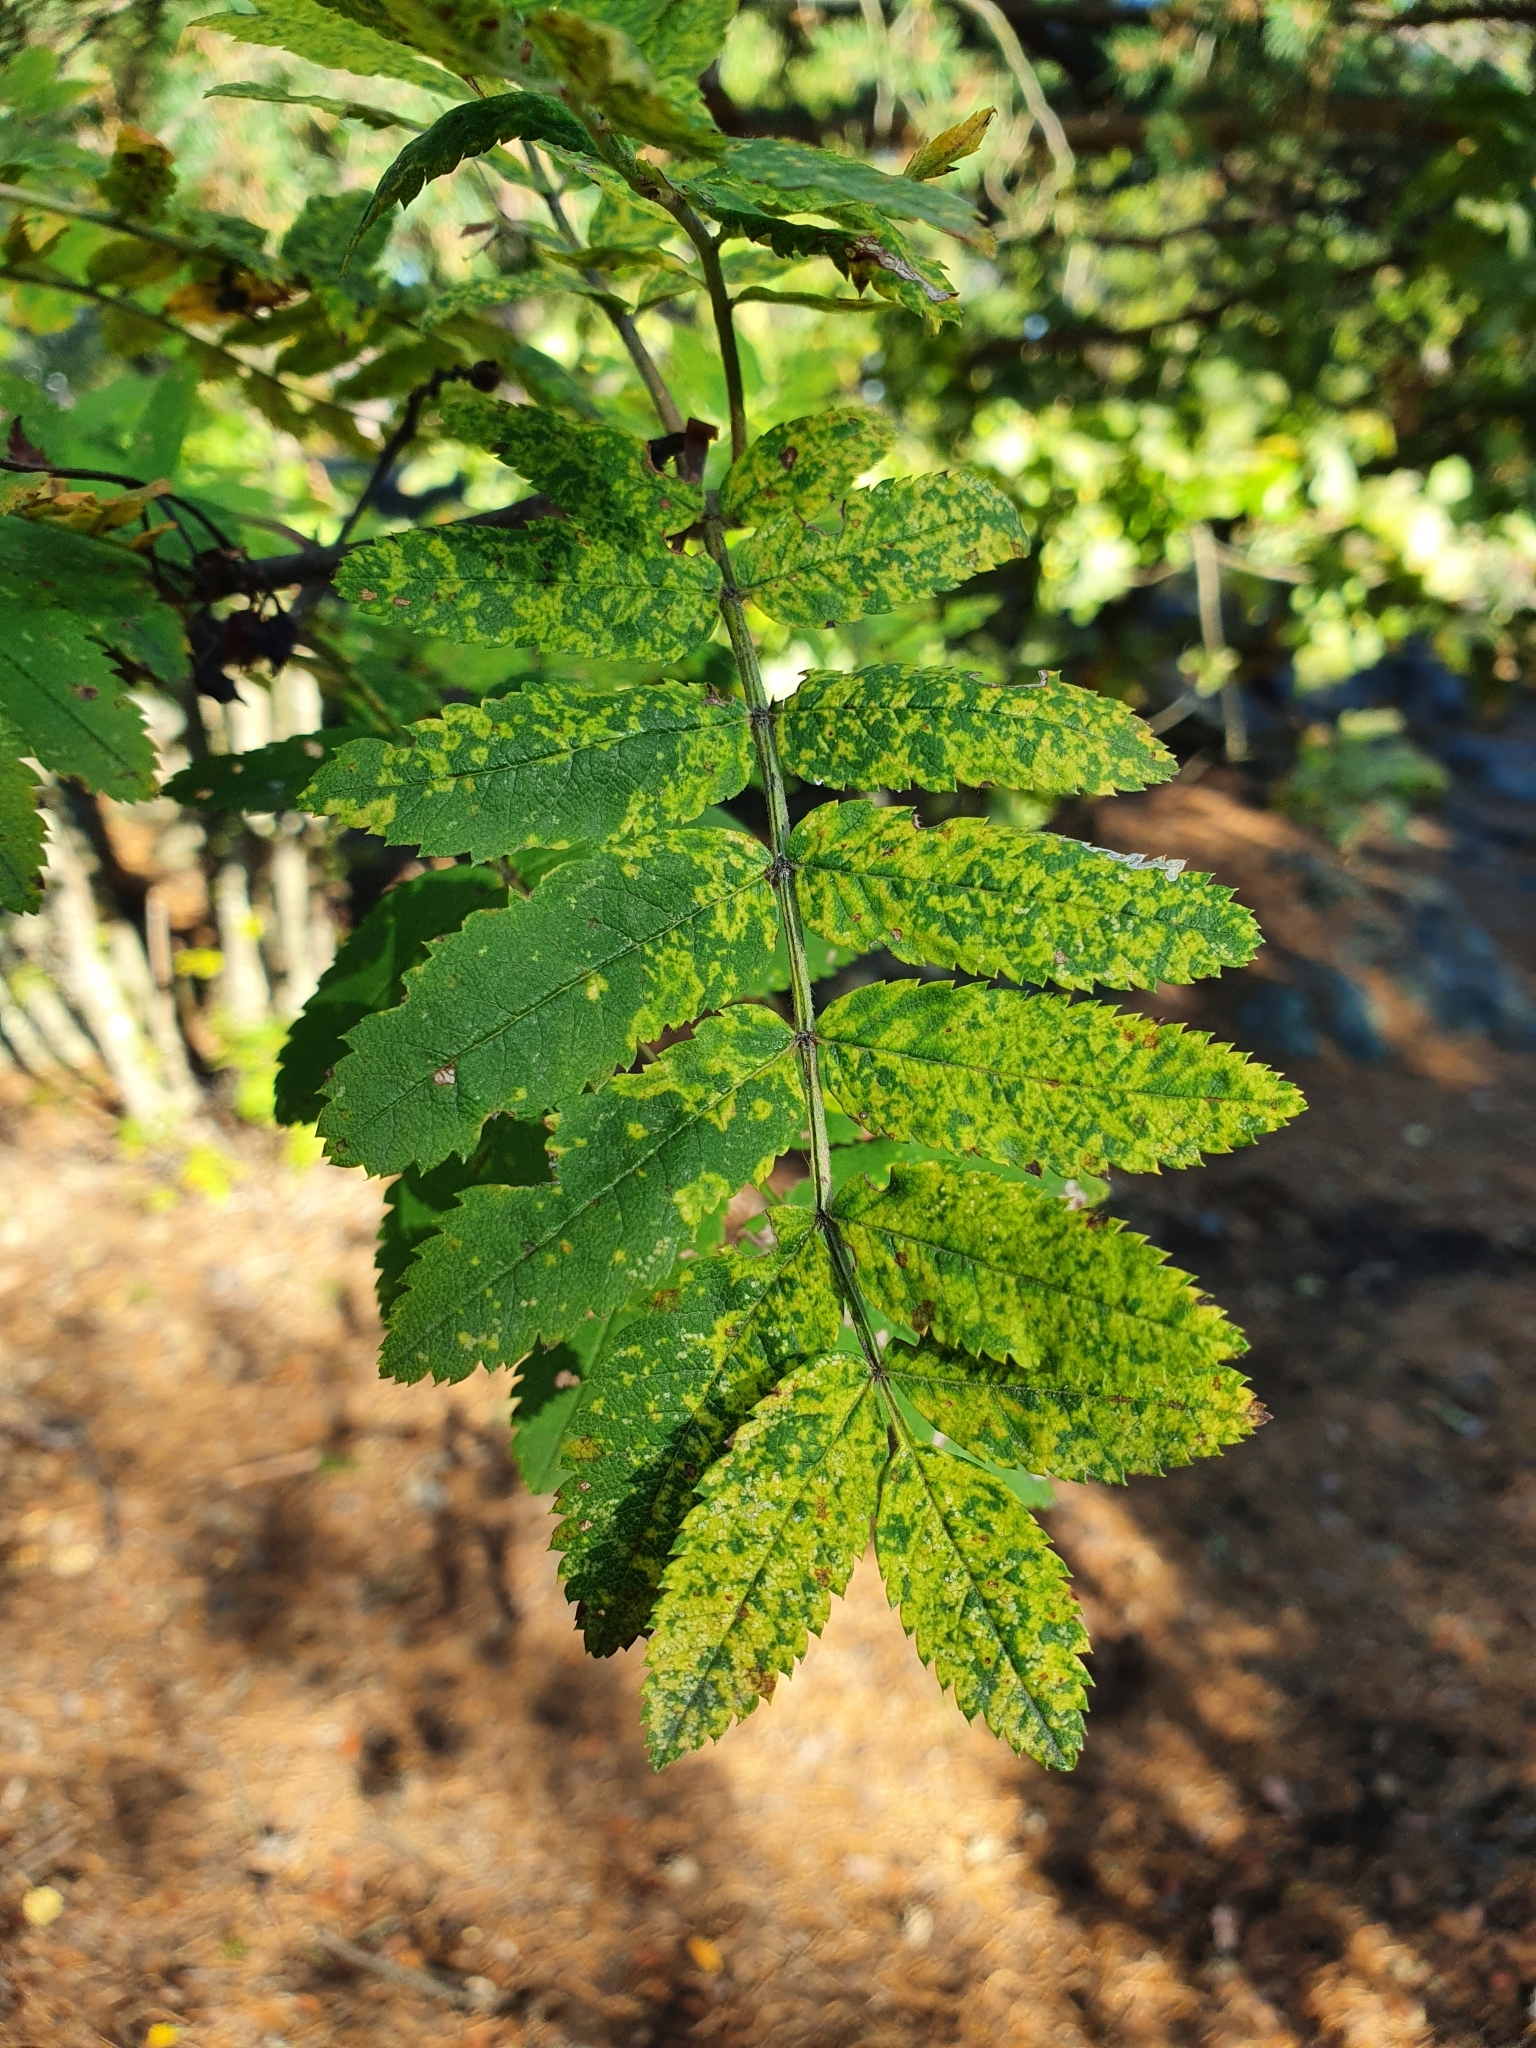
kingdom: Viruses
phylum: Negarnaviricota
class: Ellioviricetes
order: Bunyavirales
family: Fimoviridae
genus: Emaravirus
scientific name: Emaravirus sorbi
